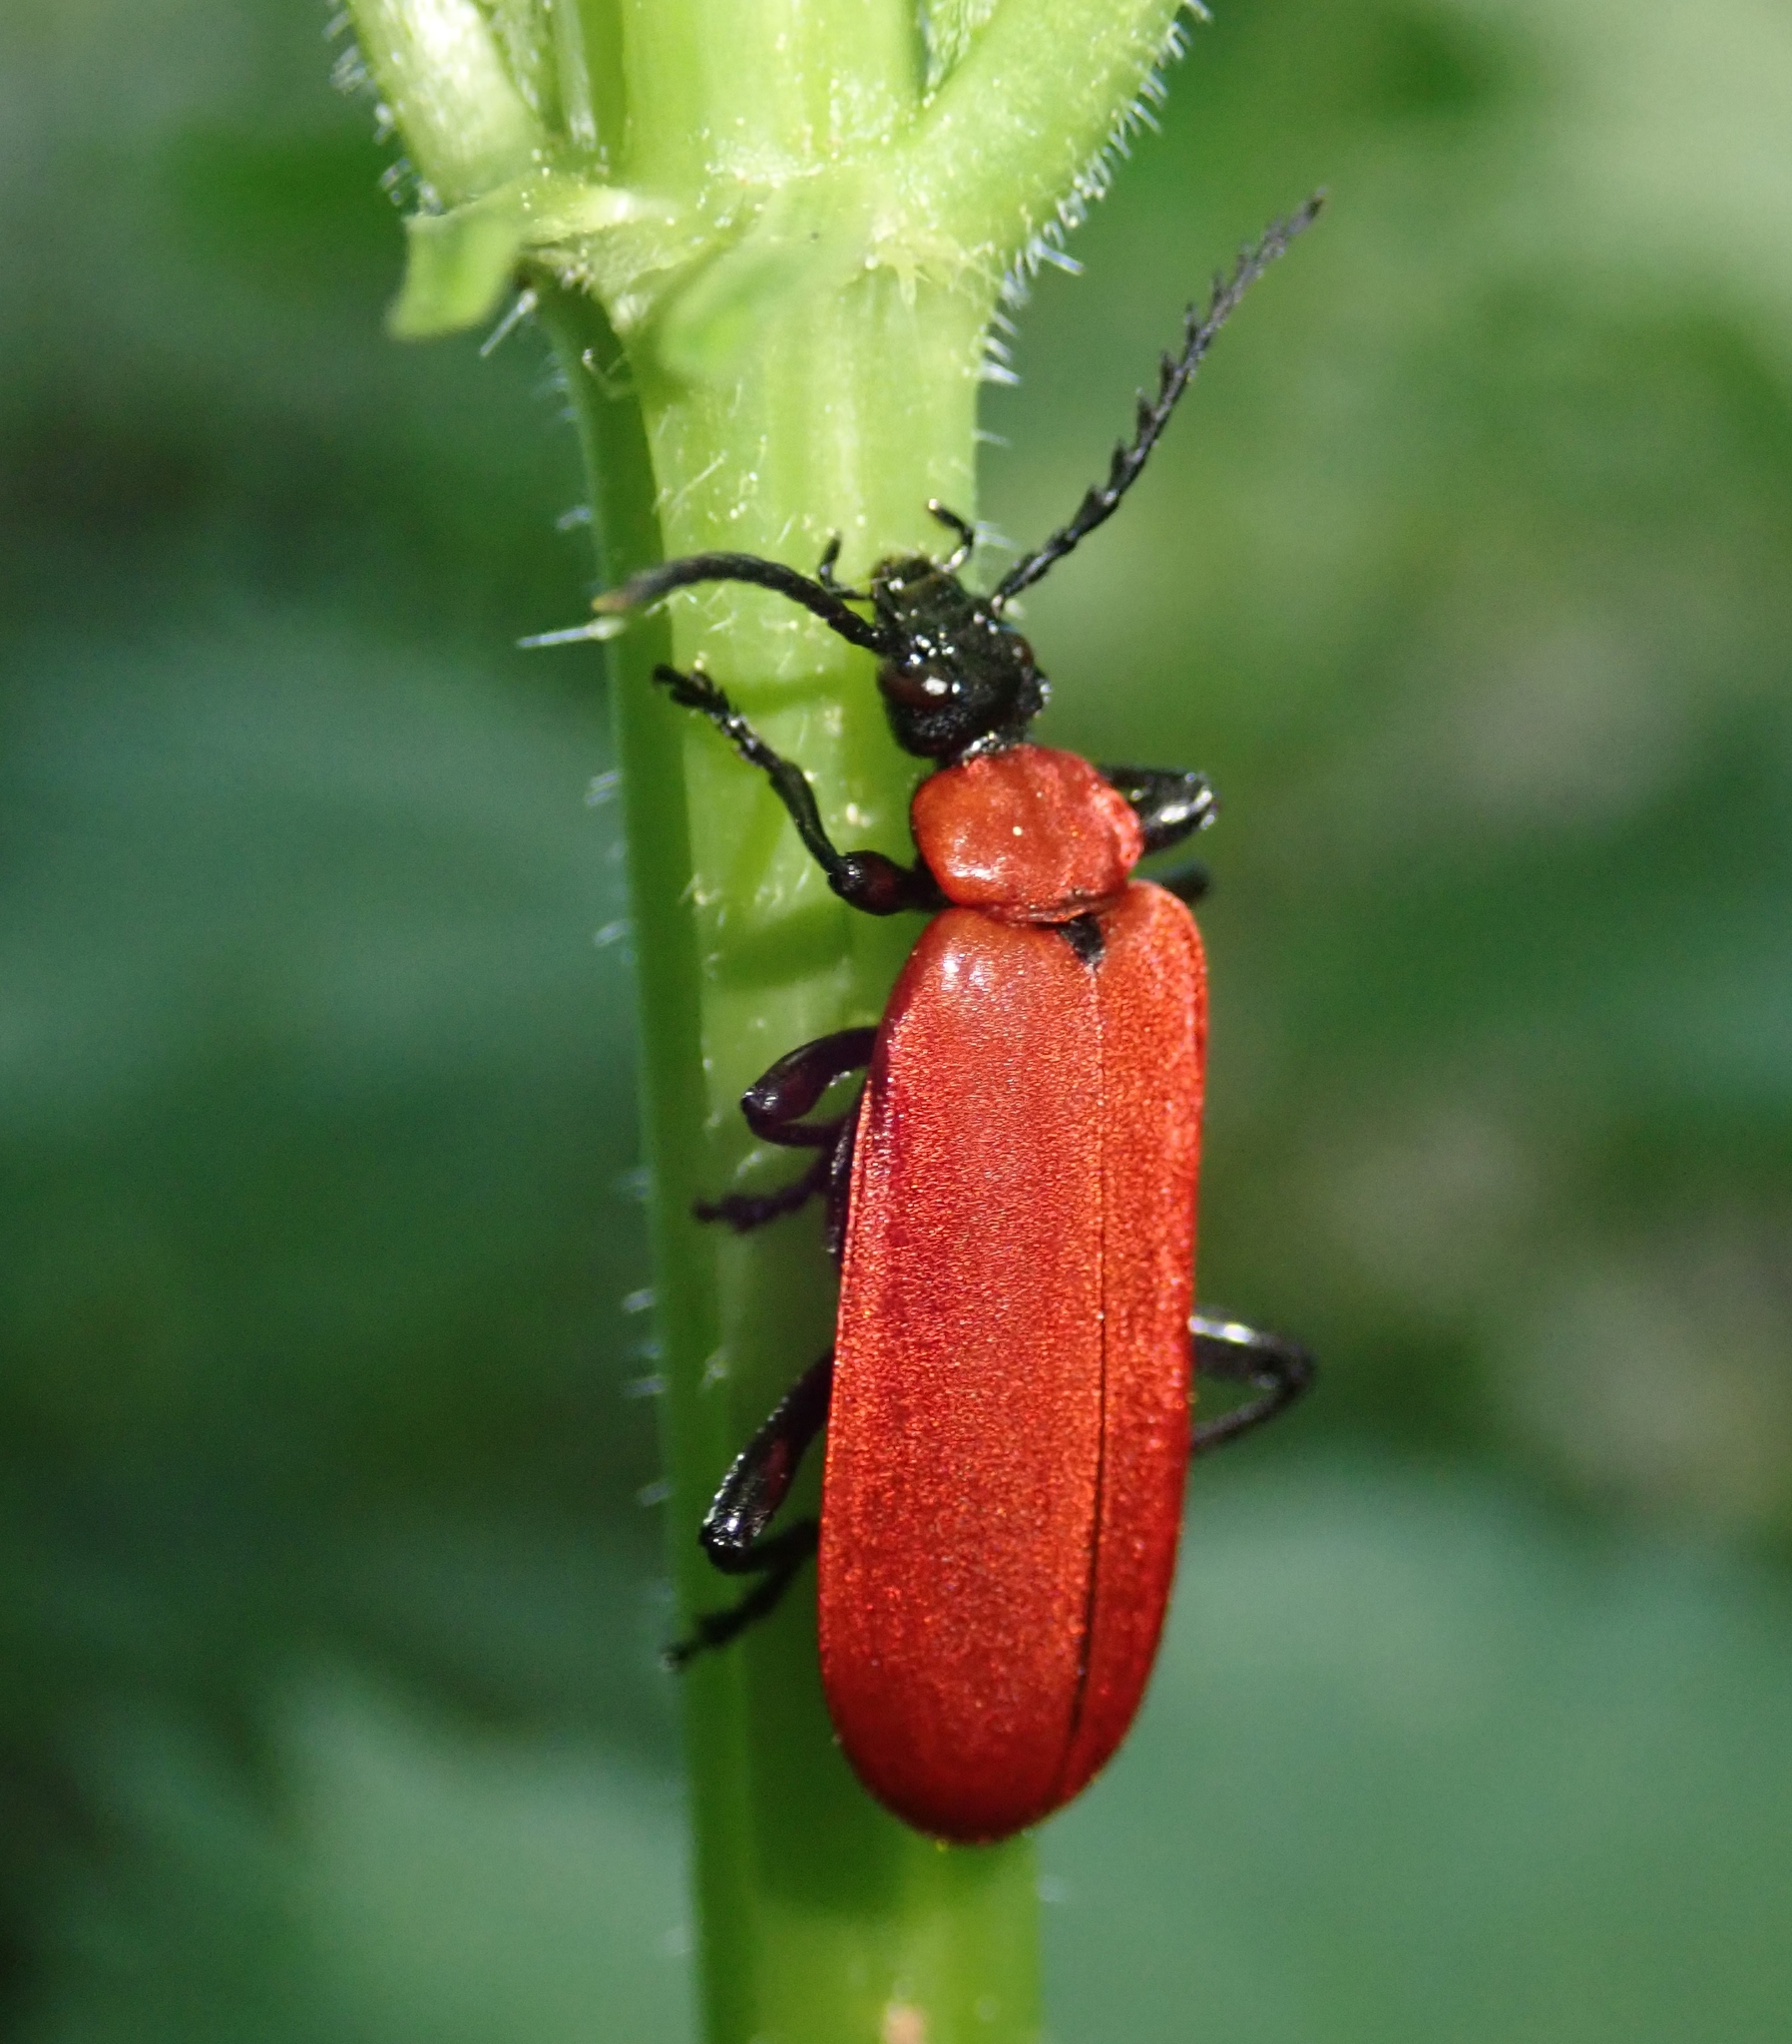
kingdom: Animalia
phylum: Arthropoda
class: Insecta
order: Coleoptera
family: Pyrochroidae
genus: Pyrochroa
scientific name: Pyrochroa coccinea
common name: Black-headed cardinal beetle
